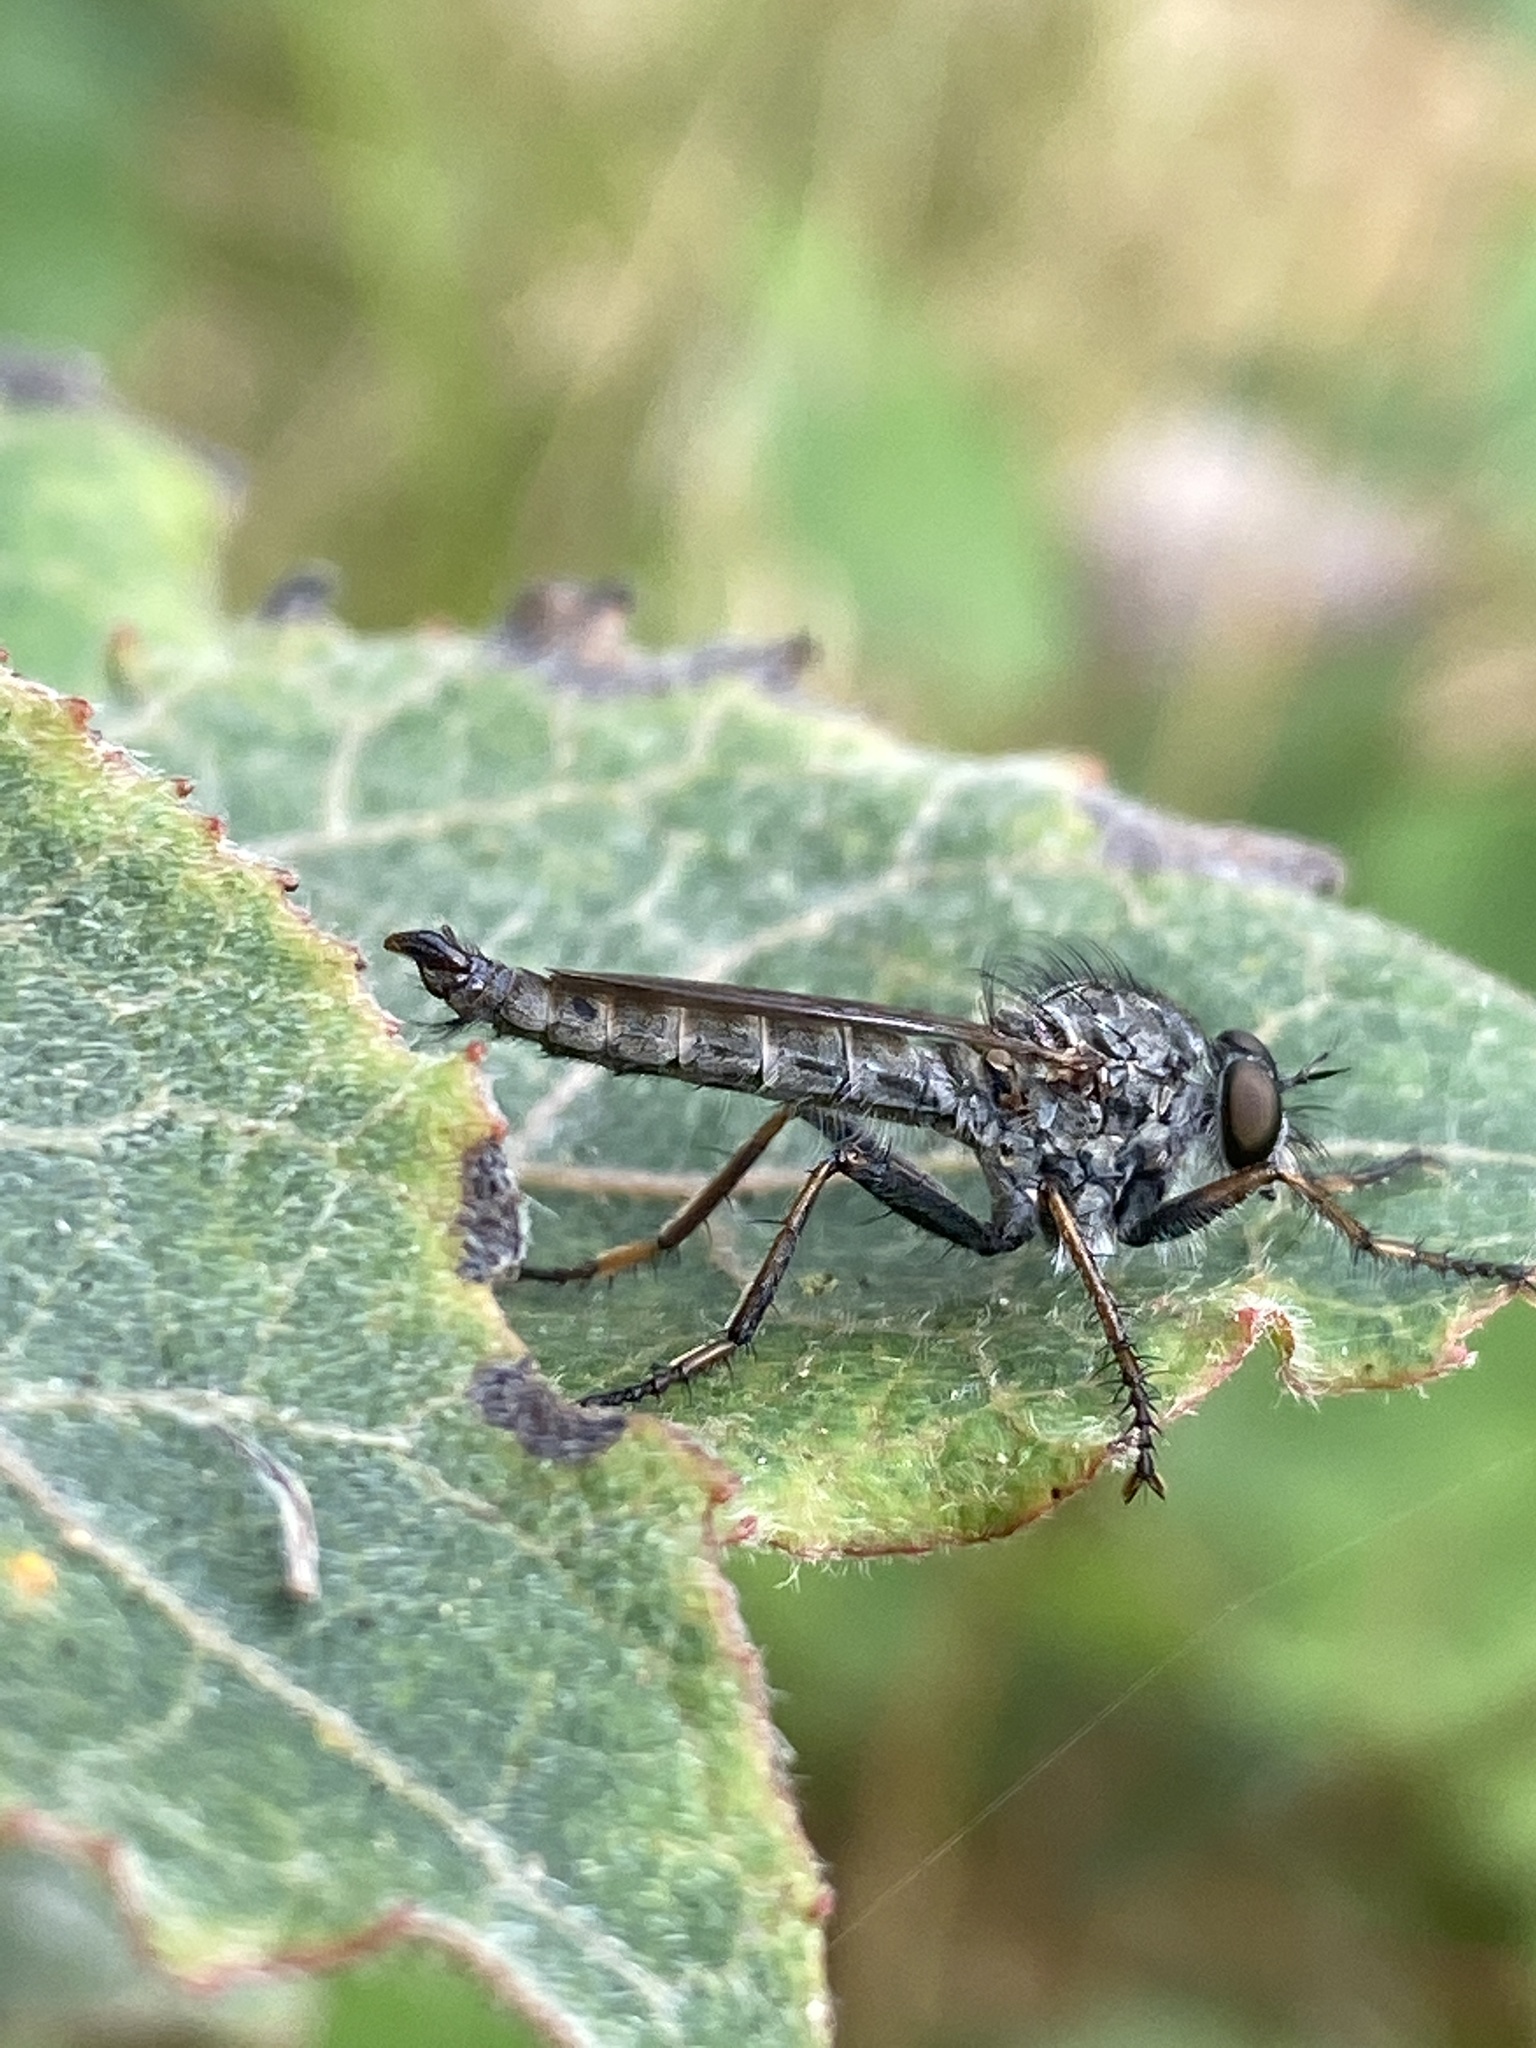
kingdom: Animalia
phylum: Arthropoda
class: Insecta
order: Diptera
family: Asilidae
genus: Machimus
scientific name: Machimus atricapillus
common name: Kite-tailed robberfly
